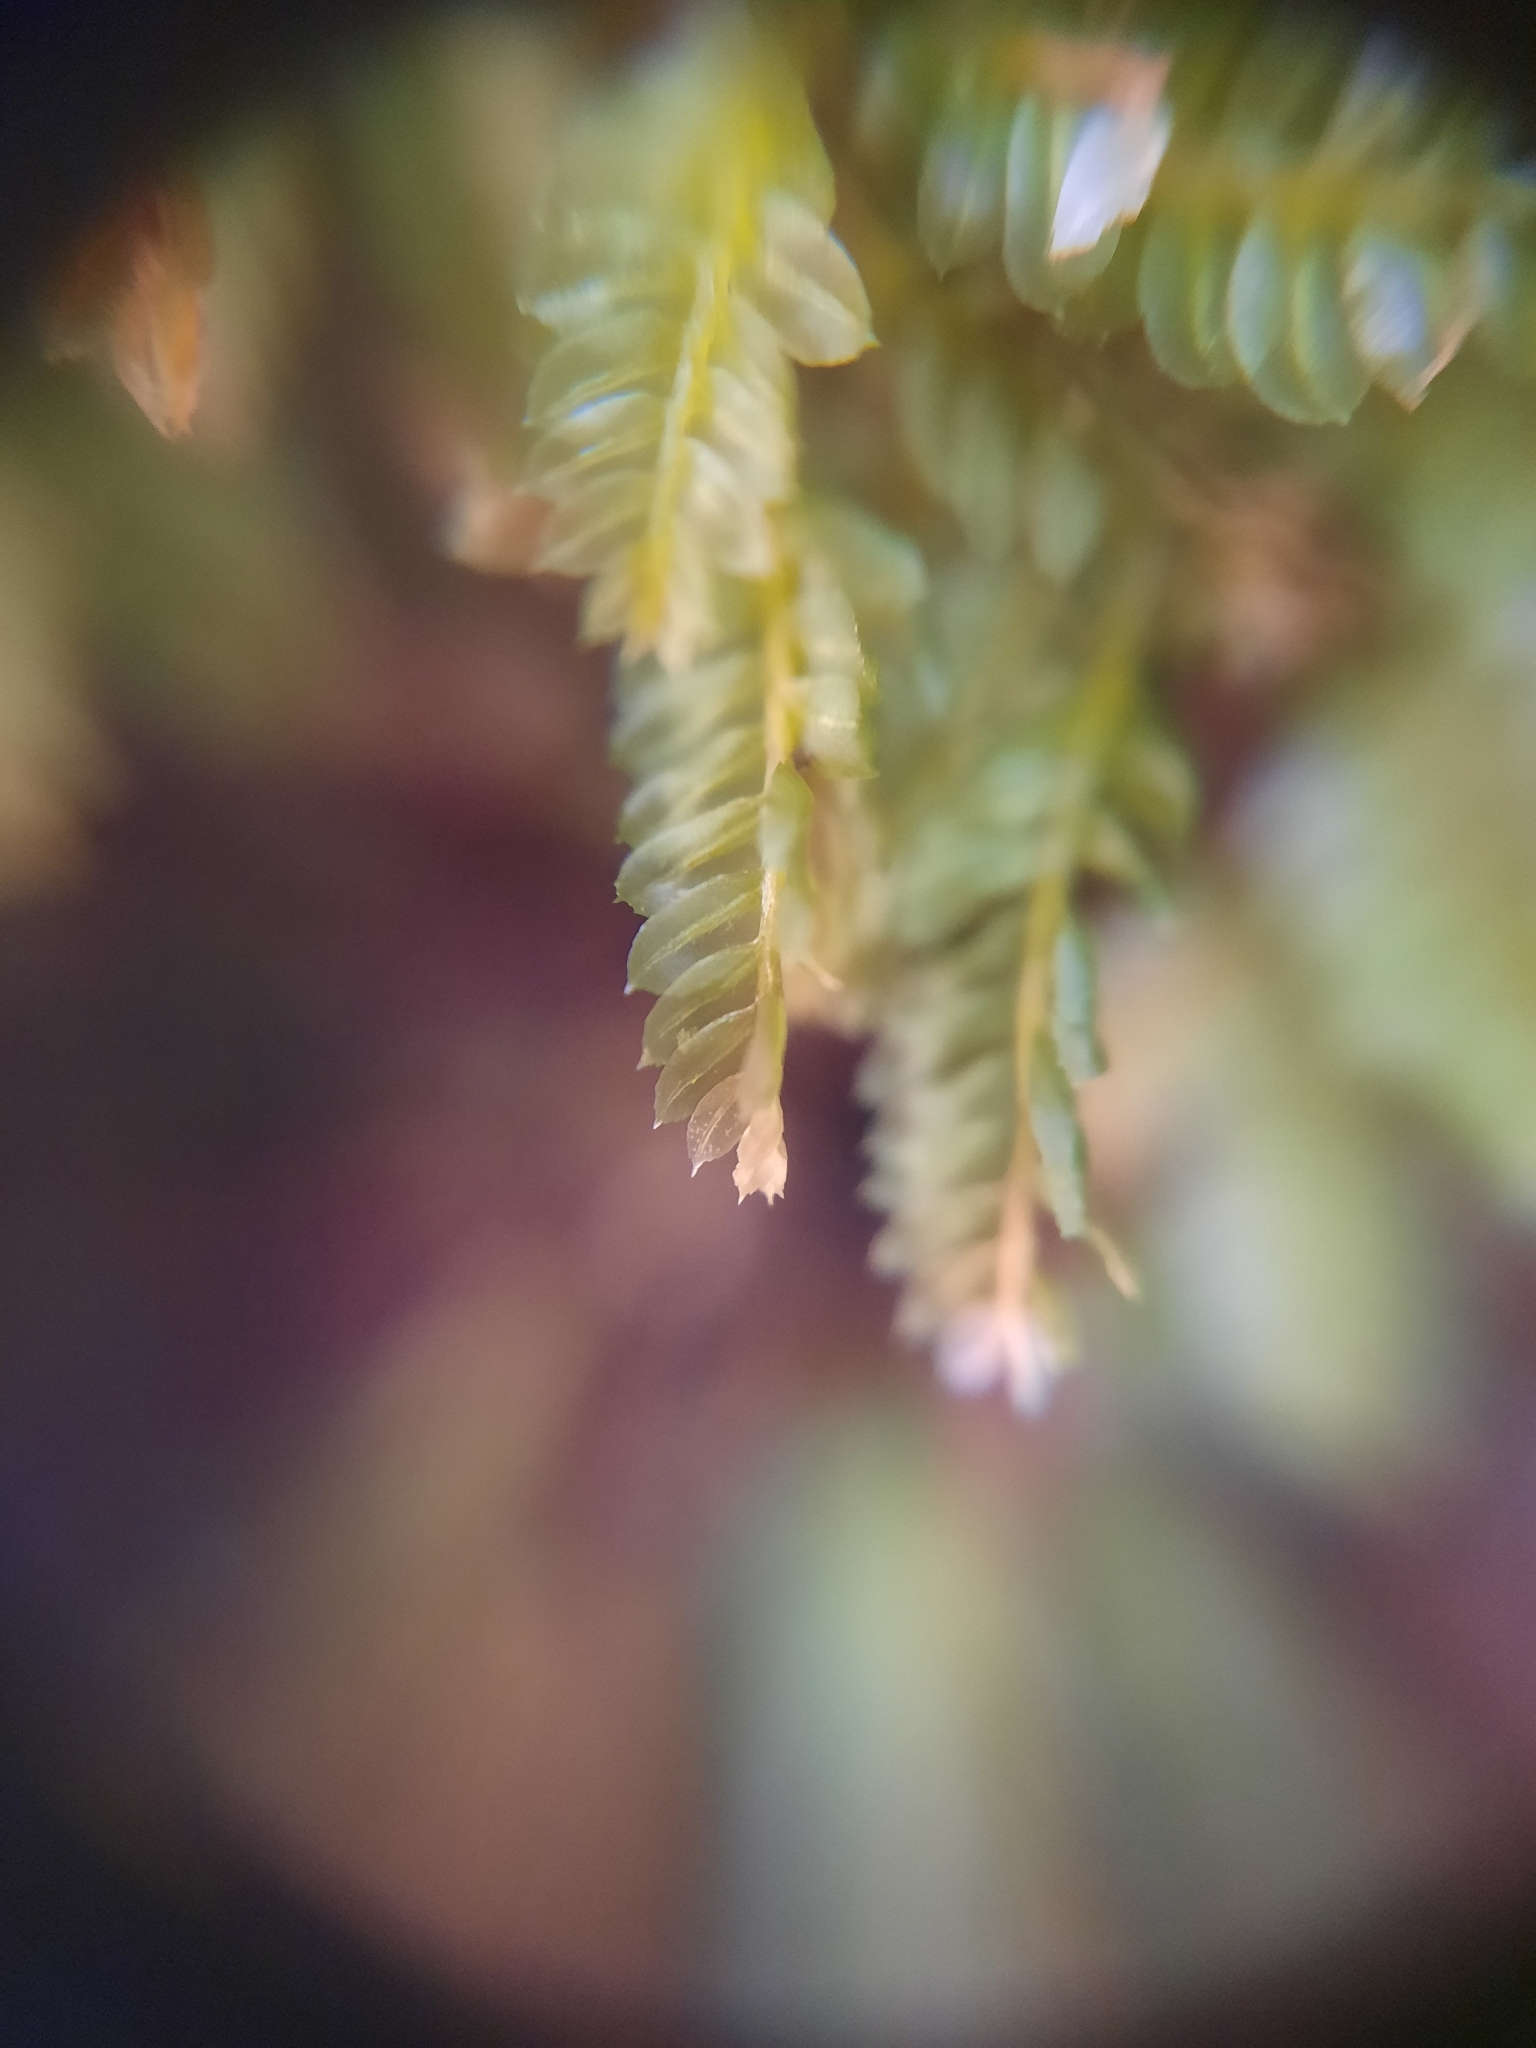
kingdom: Plantae
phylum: Bryophyta
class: Bryopsida
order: Rhizogoniales
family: Rhizogoniaceae
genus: Rhizogonium
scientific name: Rhizogonium distichum
